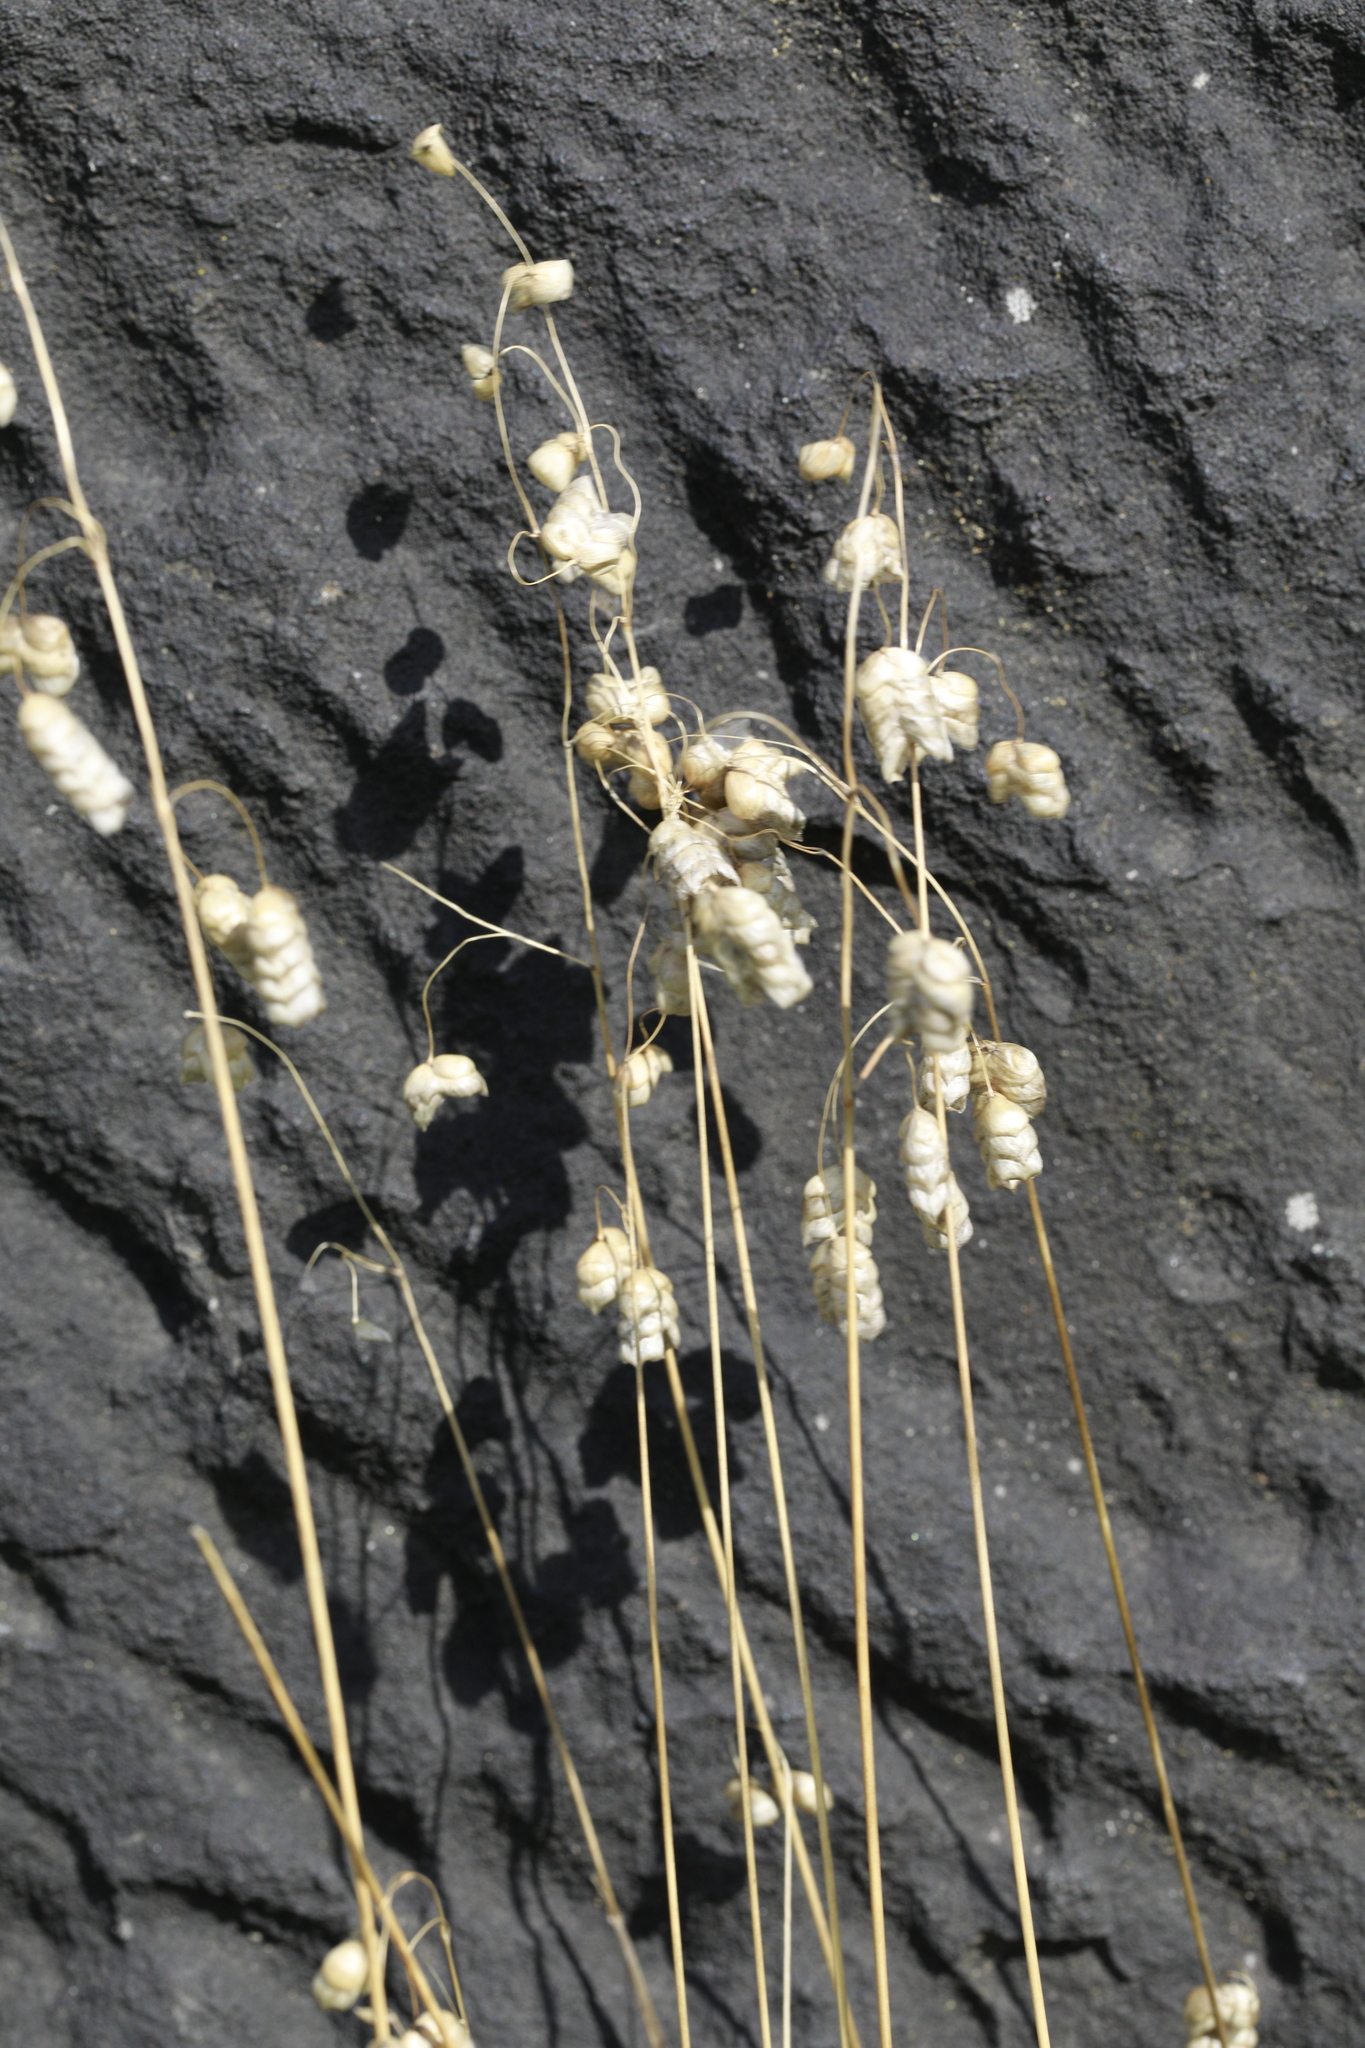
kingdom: Plantae
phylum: Tracheophyta
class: Liliopsida
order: Poales
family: Poaceae
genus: Briza
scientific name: Briza maxima
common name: Big quakinggrass
